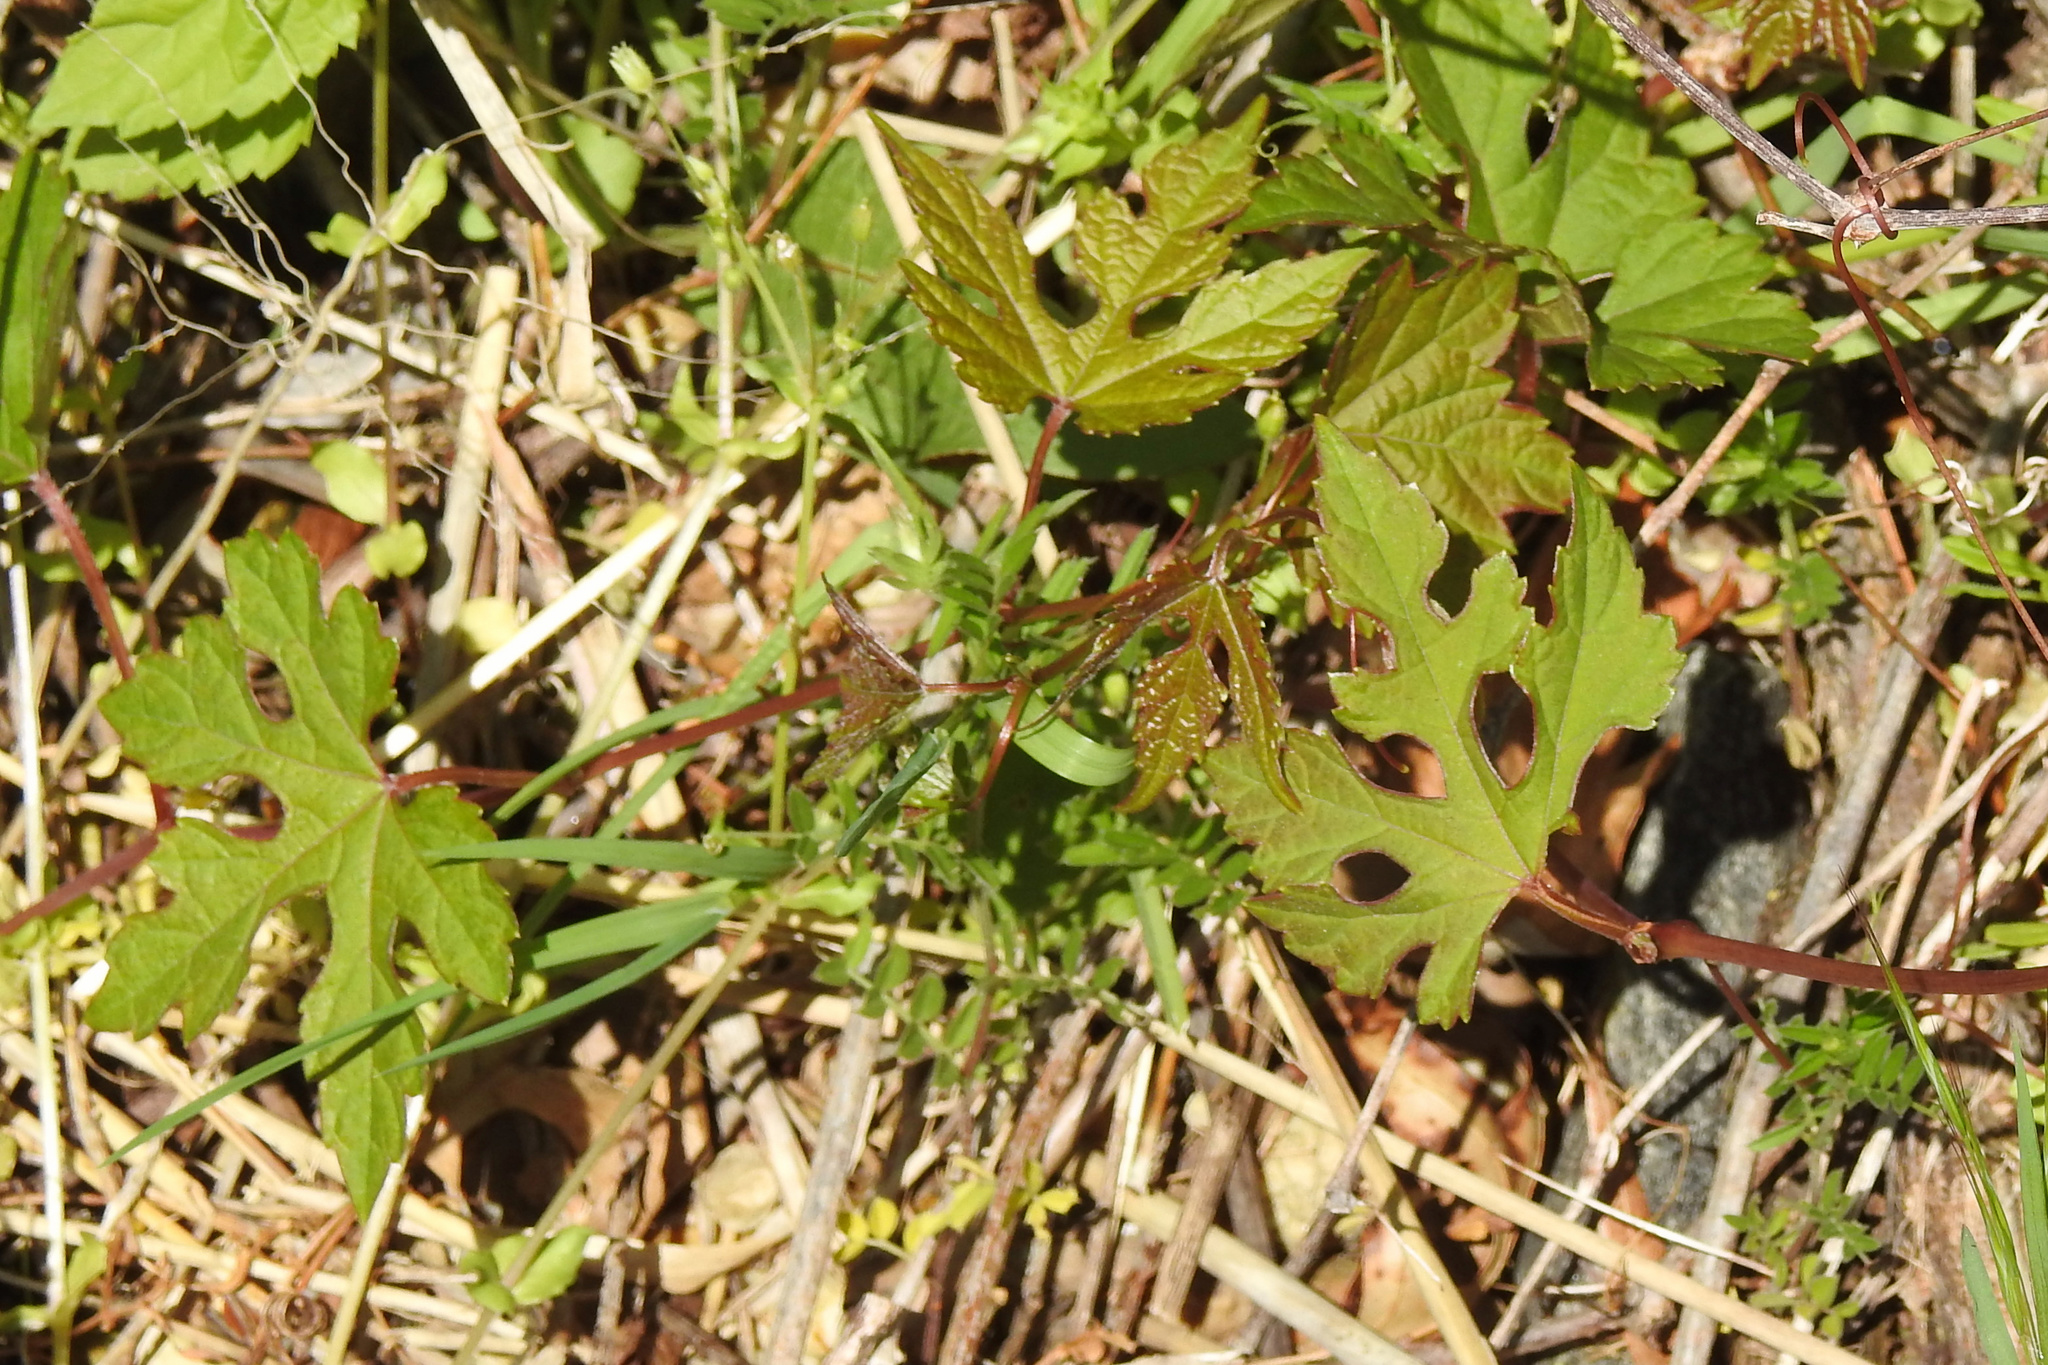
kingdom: Plantae
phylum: Tracheophyta
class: Magnoliopsida
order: Vitales
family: Vitaceae
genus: Ampelopsis
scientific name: Ampelopsis glandulosa
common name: Amur peppervine
